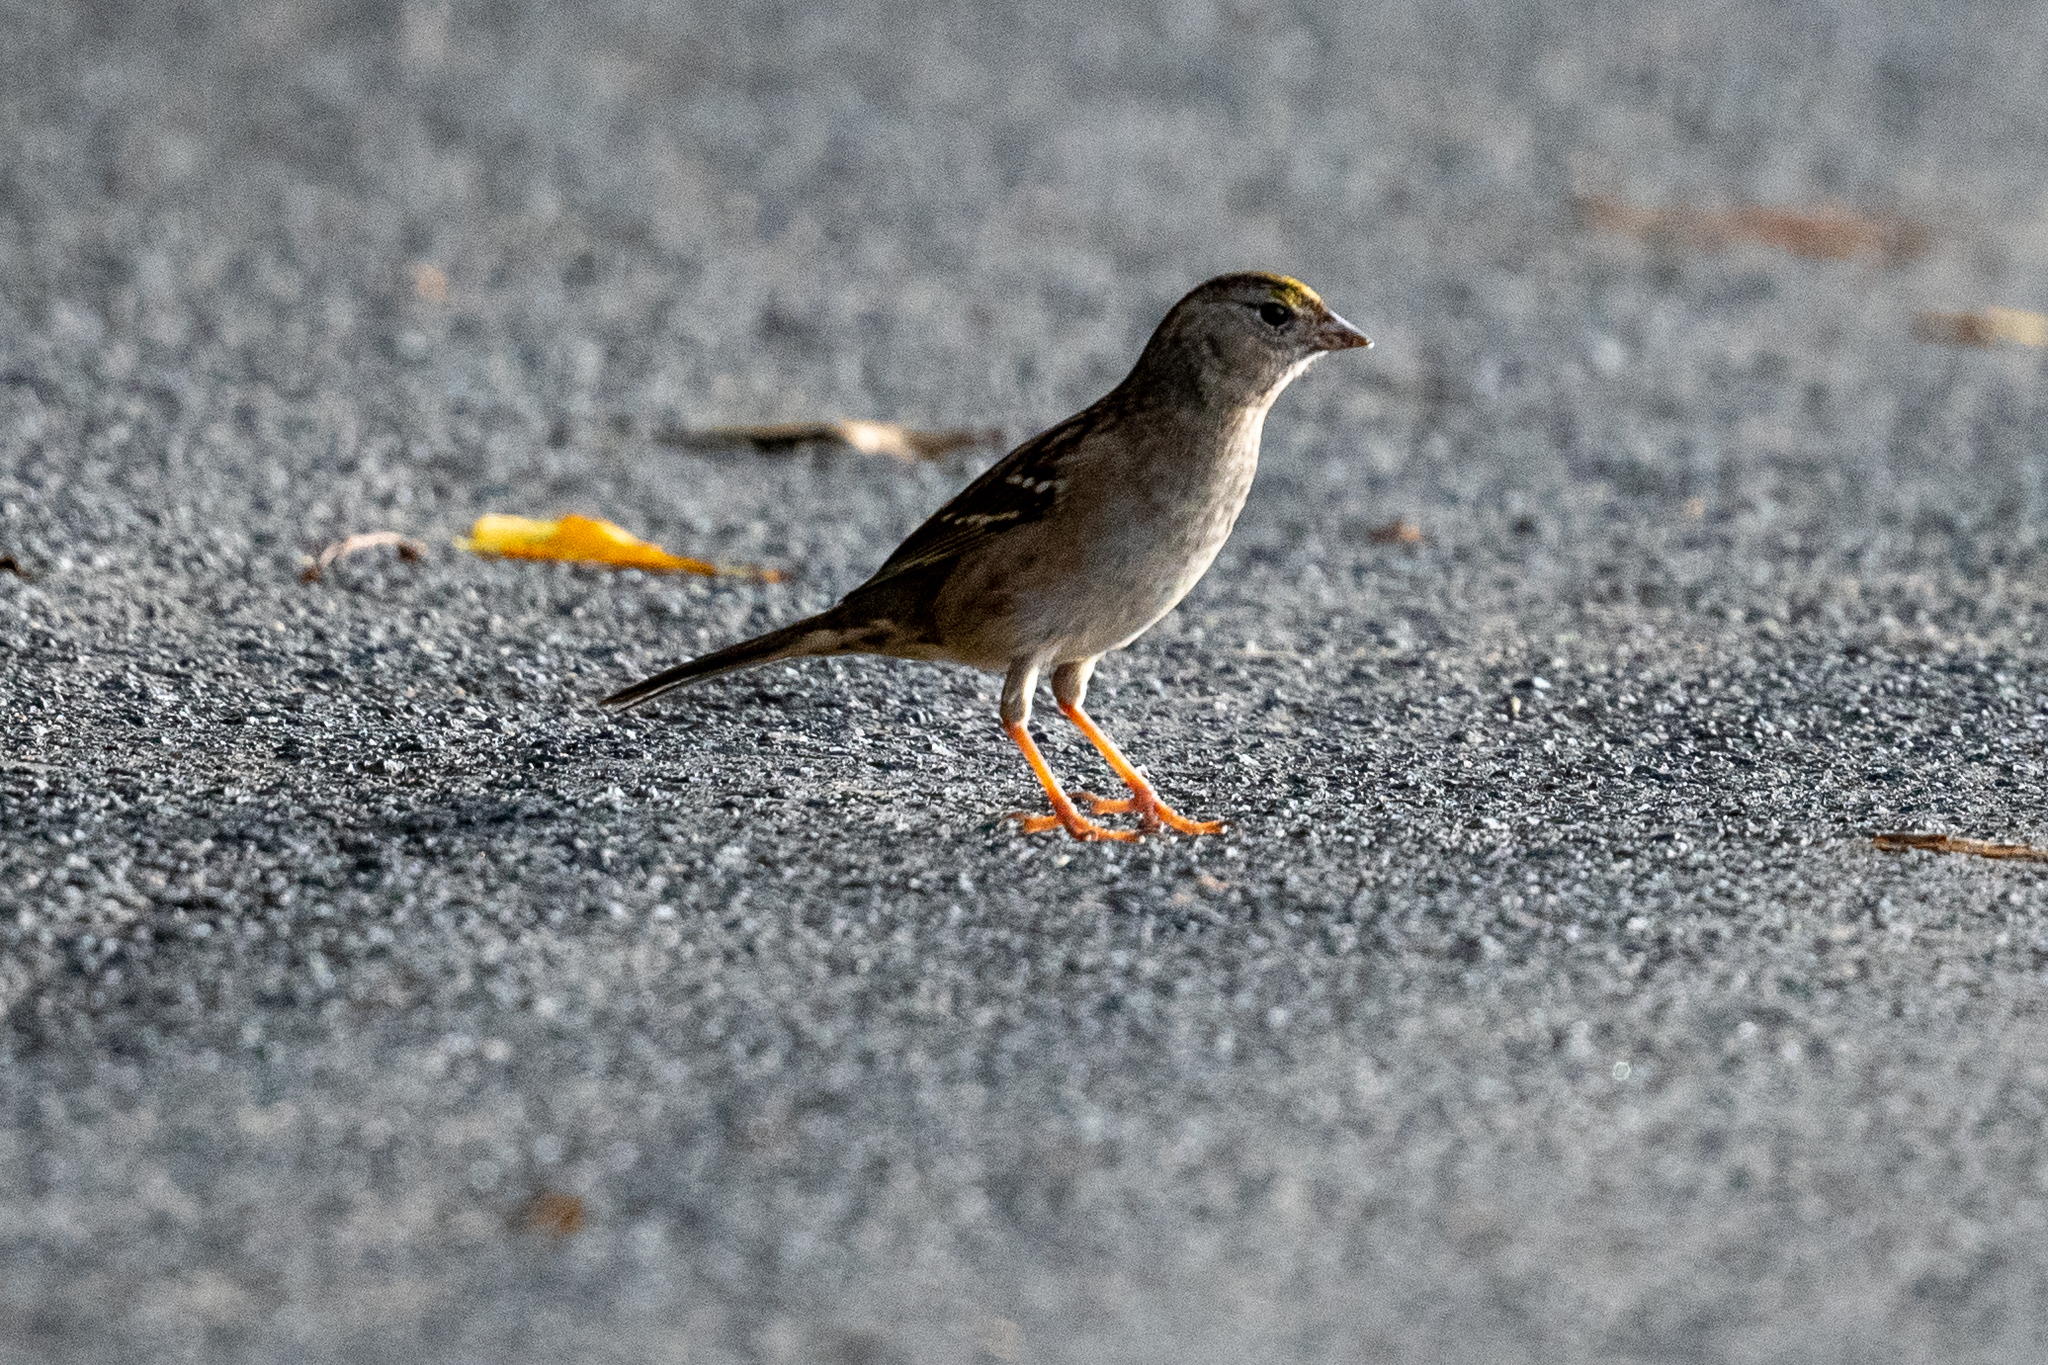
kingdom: Animalia
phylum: Chordata
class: Aves
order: Passeriformes
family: Passerellidae
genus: Zonotrichia
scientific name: Zonotrichia atricapilla
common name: Golden-crowned sparrow
